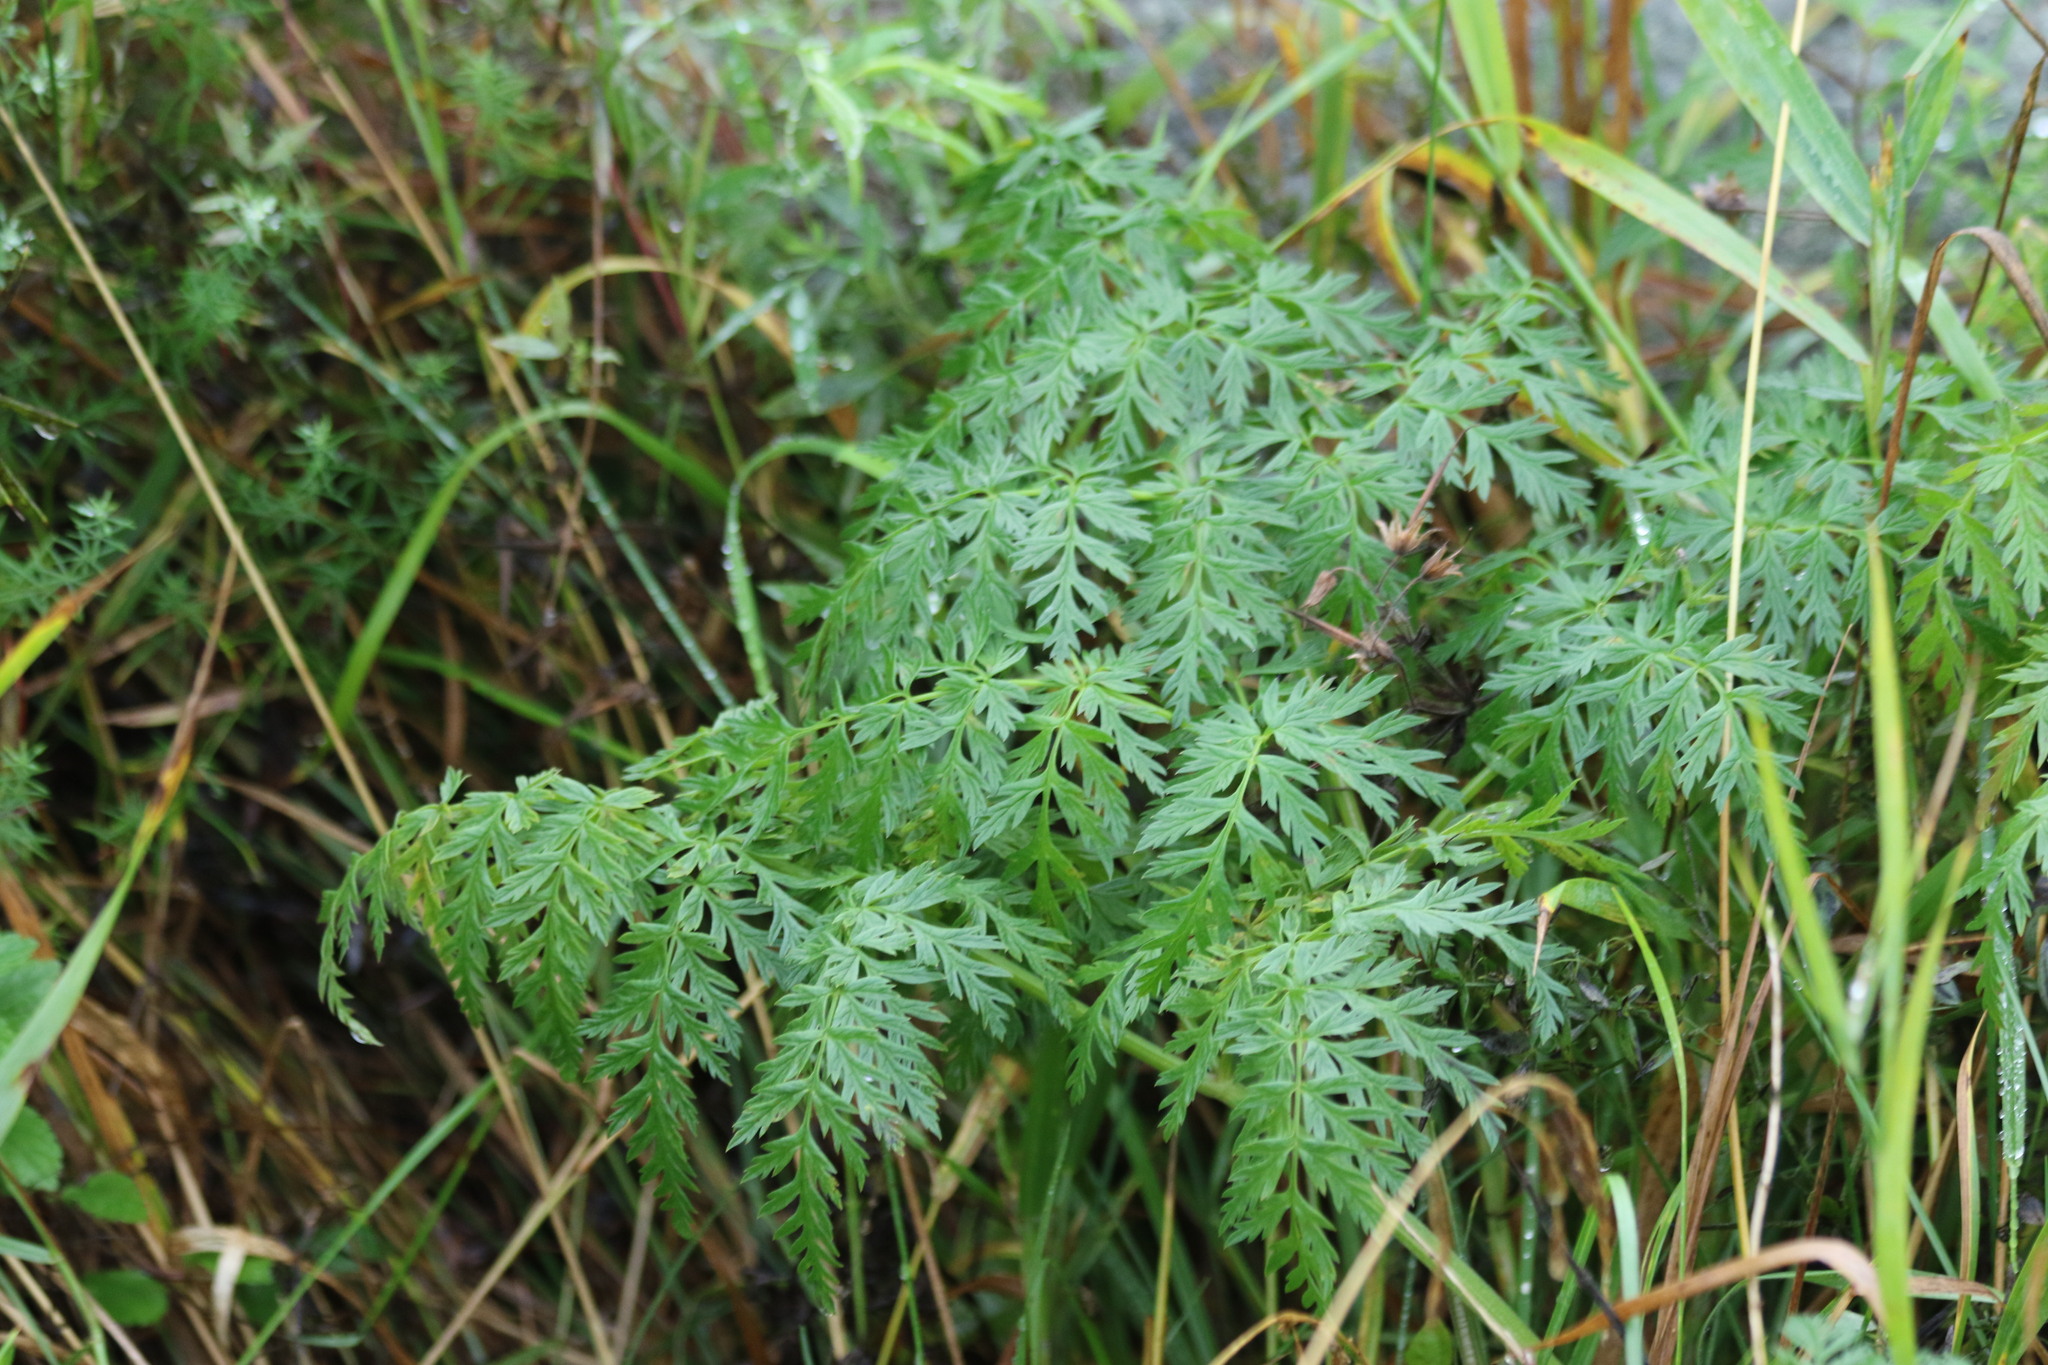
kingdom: Plantae
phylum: Tracheophyta
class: Magnoliopsida
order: Apiales
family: Apiaceae
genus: Conioselinum
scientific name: Conioselinum tataricum
